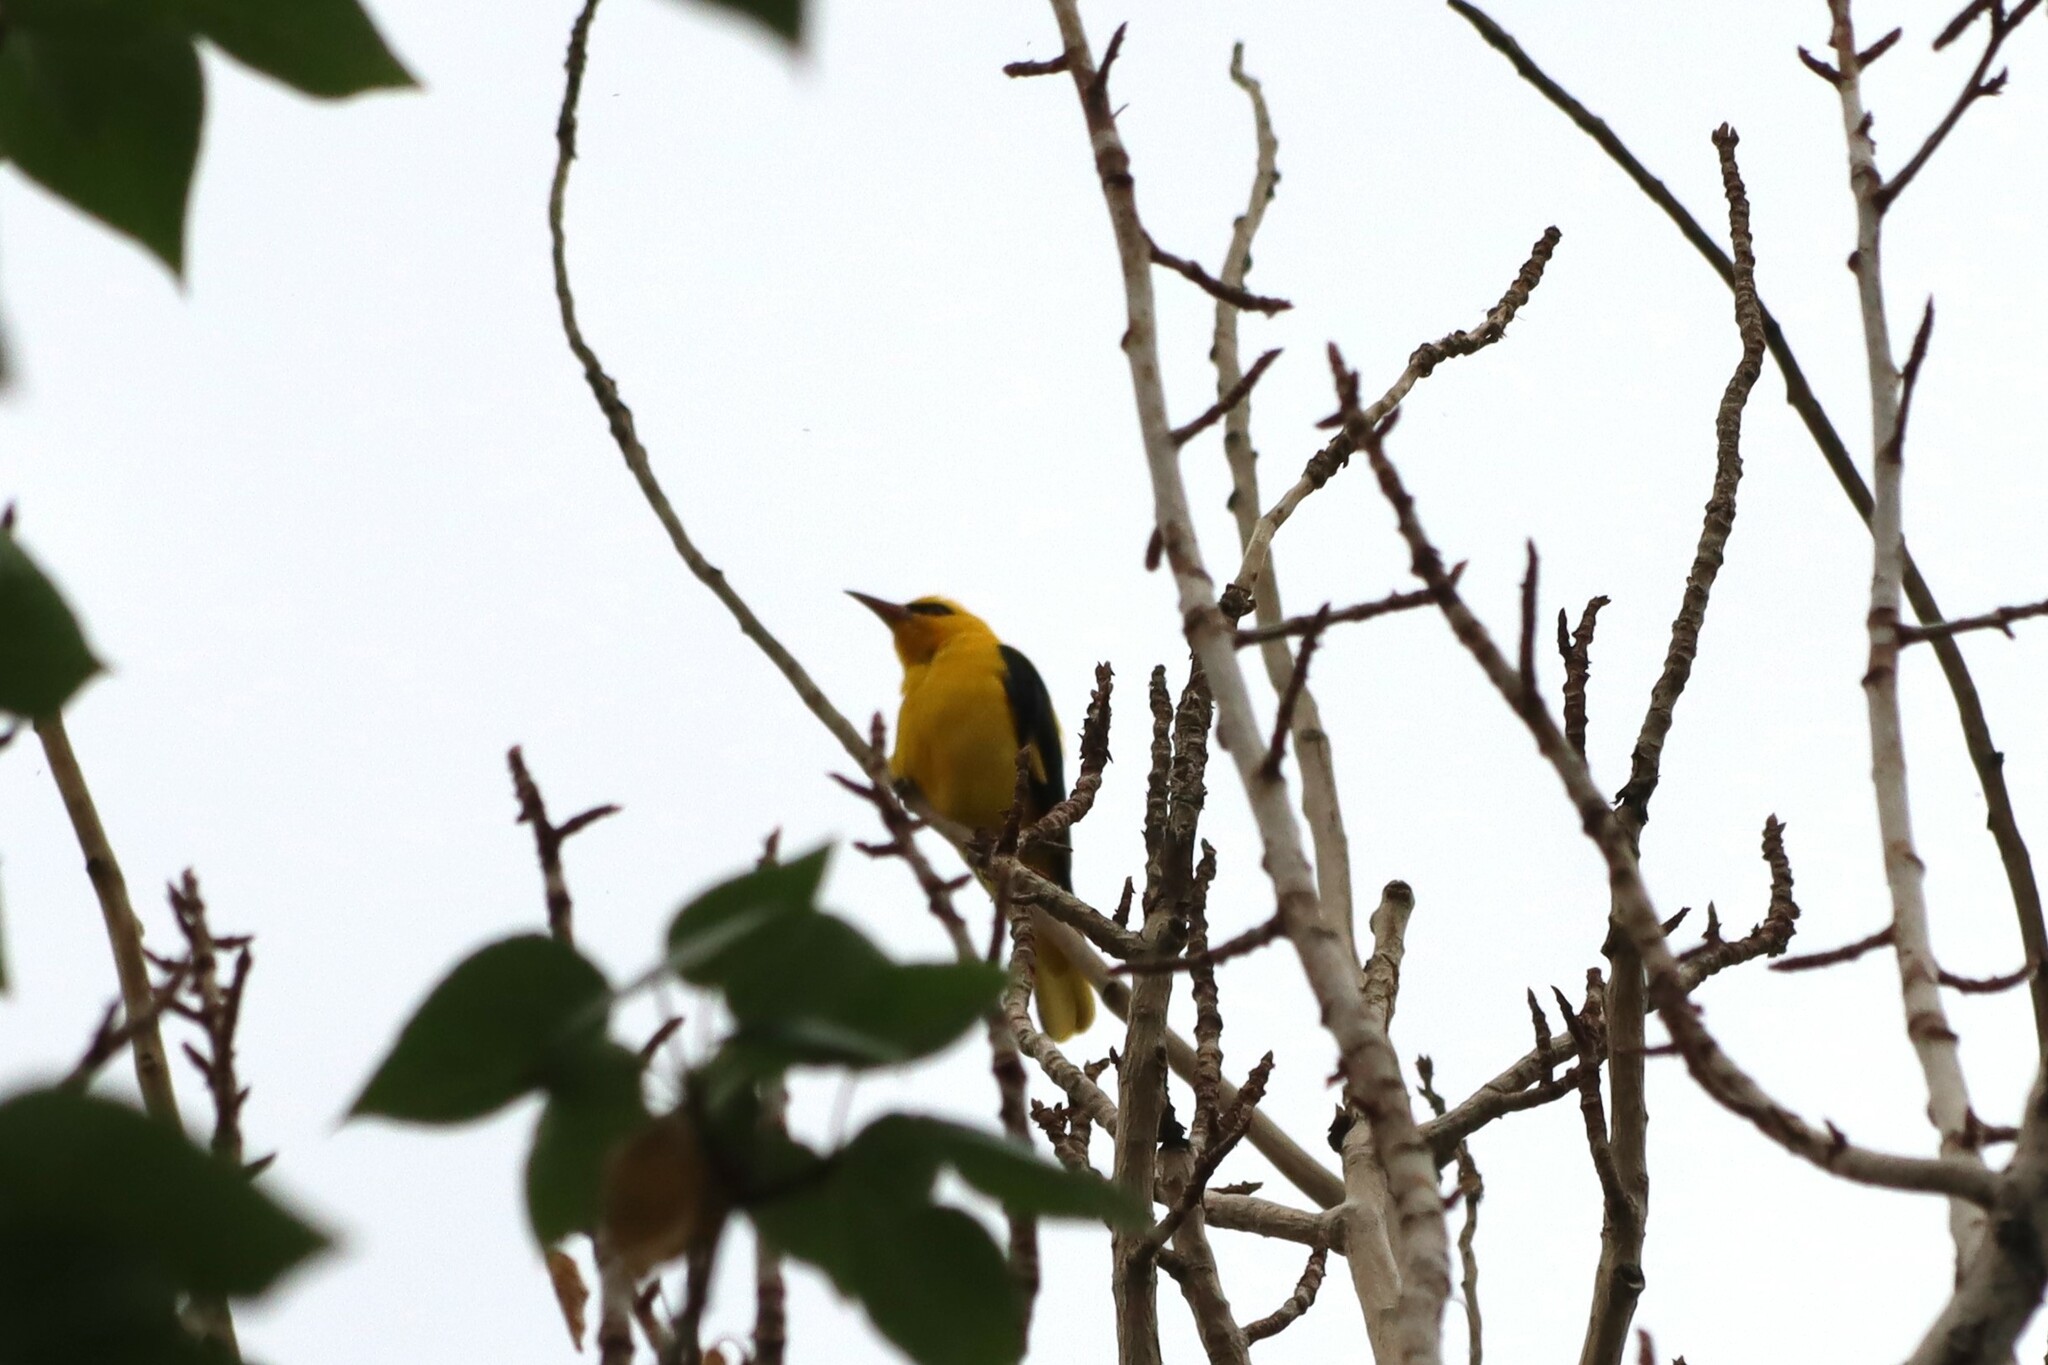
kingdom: Animalia
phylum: Chordata
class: Aves
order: Passeriformes
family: Oriolidae
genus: Oriolus
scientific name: Oriolus kundoo
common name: Indian golden oriole
